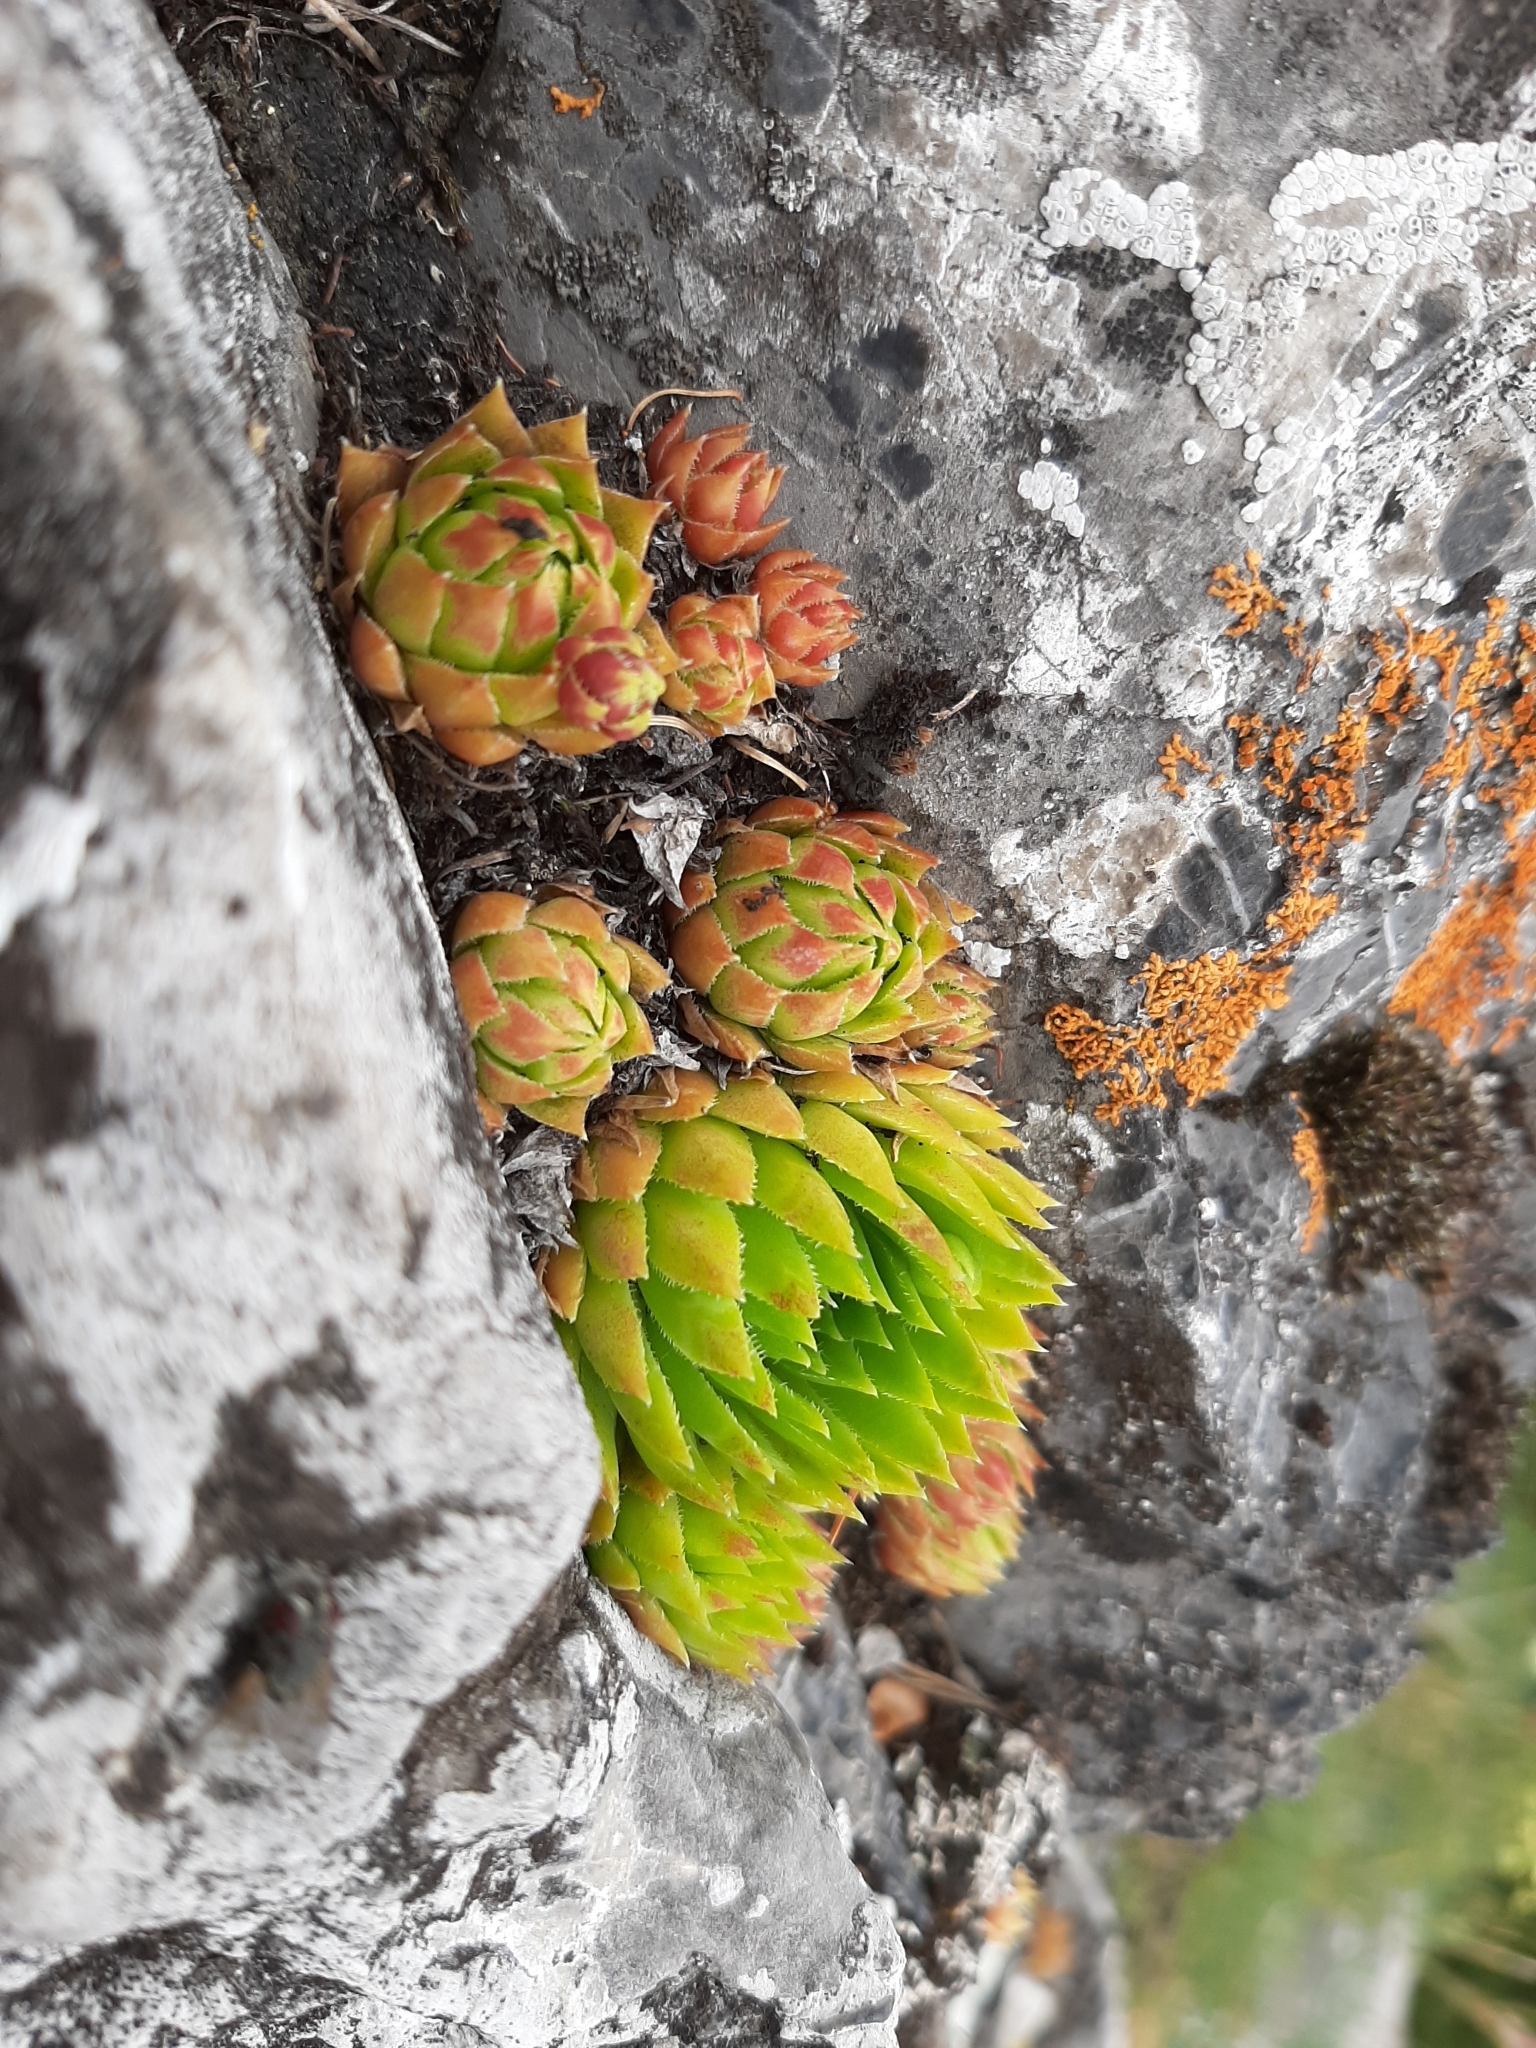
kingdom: Plantae
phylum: Tracheophyta
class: Magnoliopsida
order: Saxifragales
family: Crassulaceae
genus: Sempervivum
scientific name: Sempervivum globiferum
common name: Rolling hen-and-chicks
